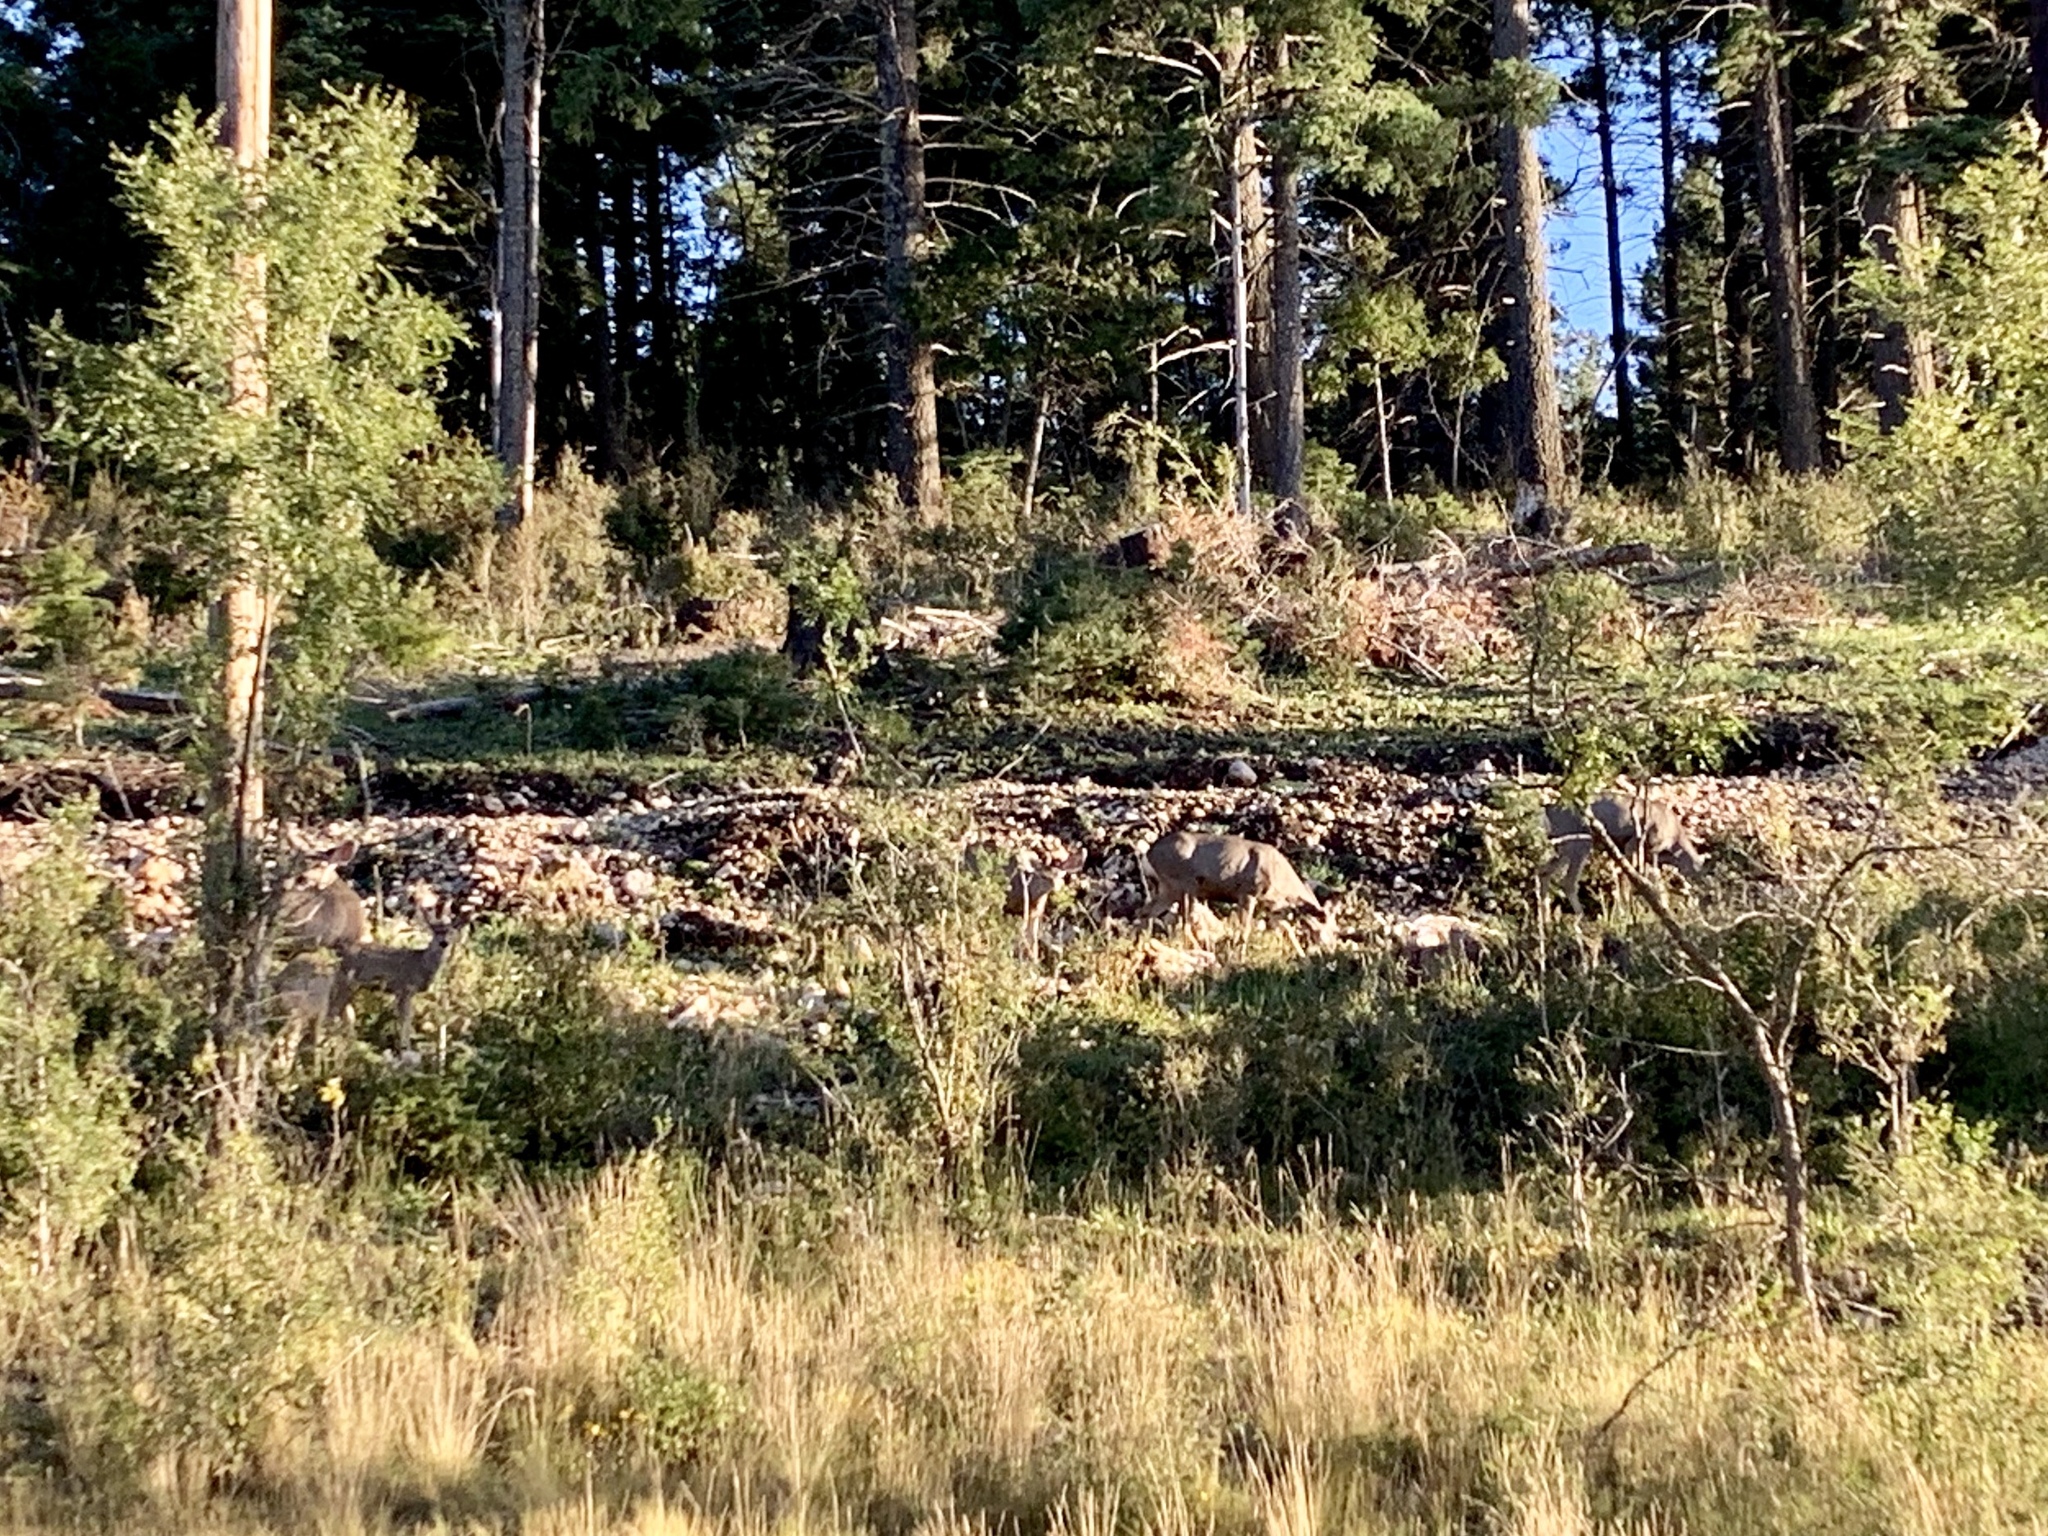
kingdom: Animalia
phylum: Chordata
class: Mammalia
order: Artiodactyla
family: Cervidae
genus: Odocoileus
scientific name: Odocoileus hemionus
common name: Mule deer
